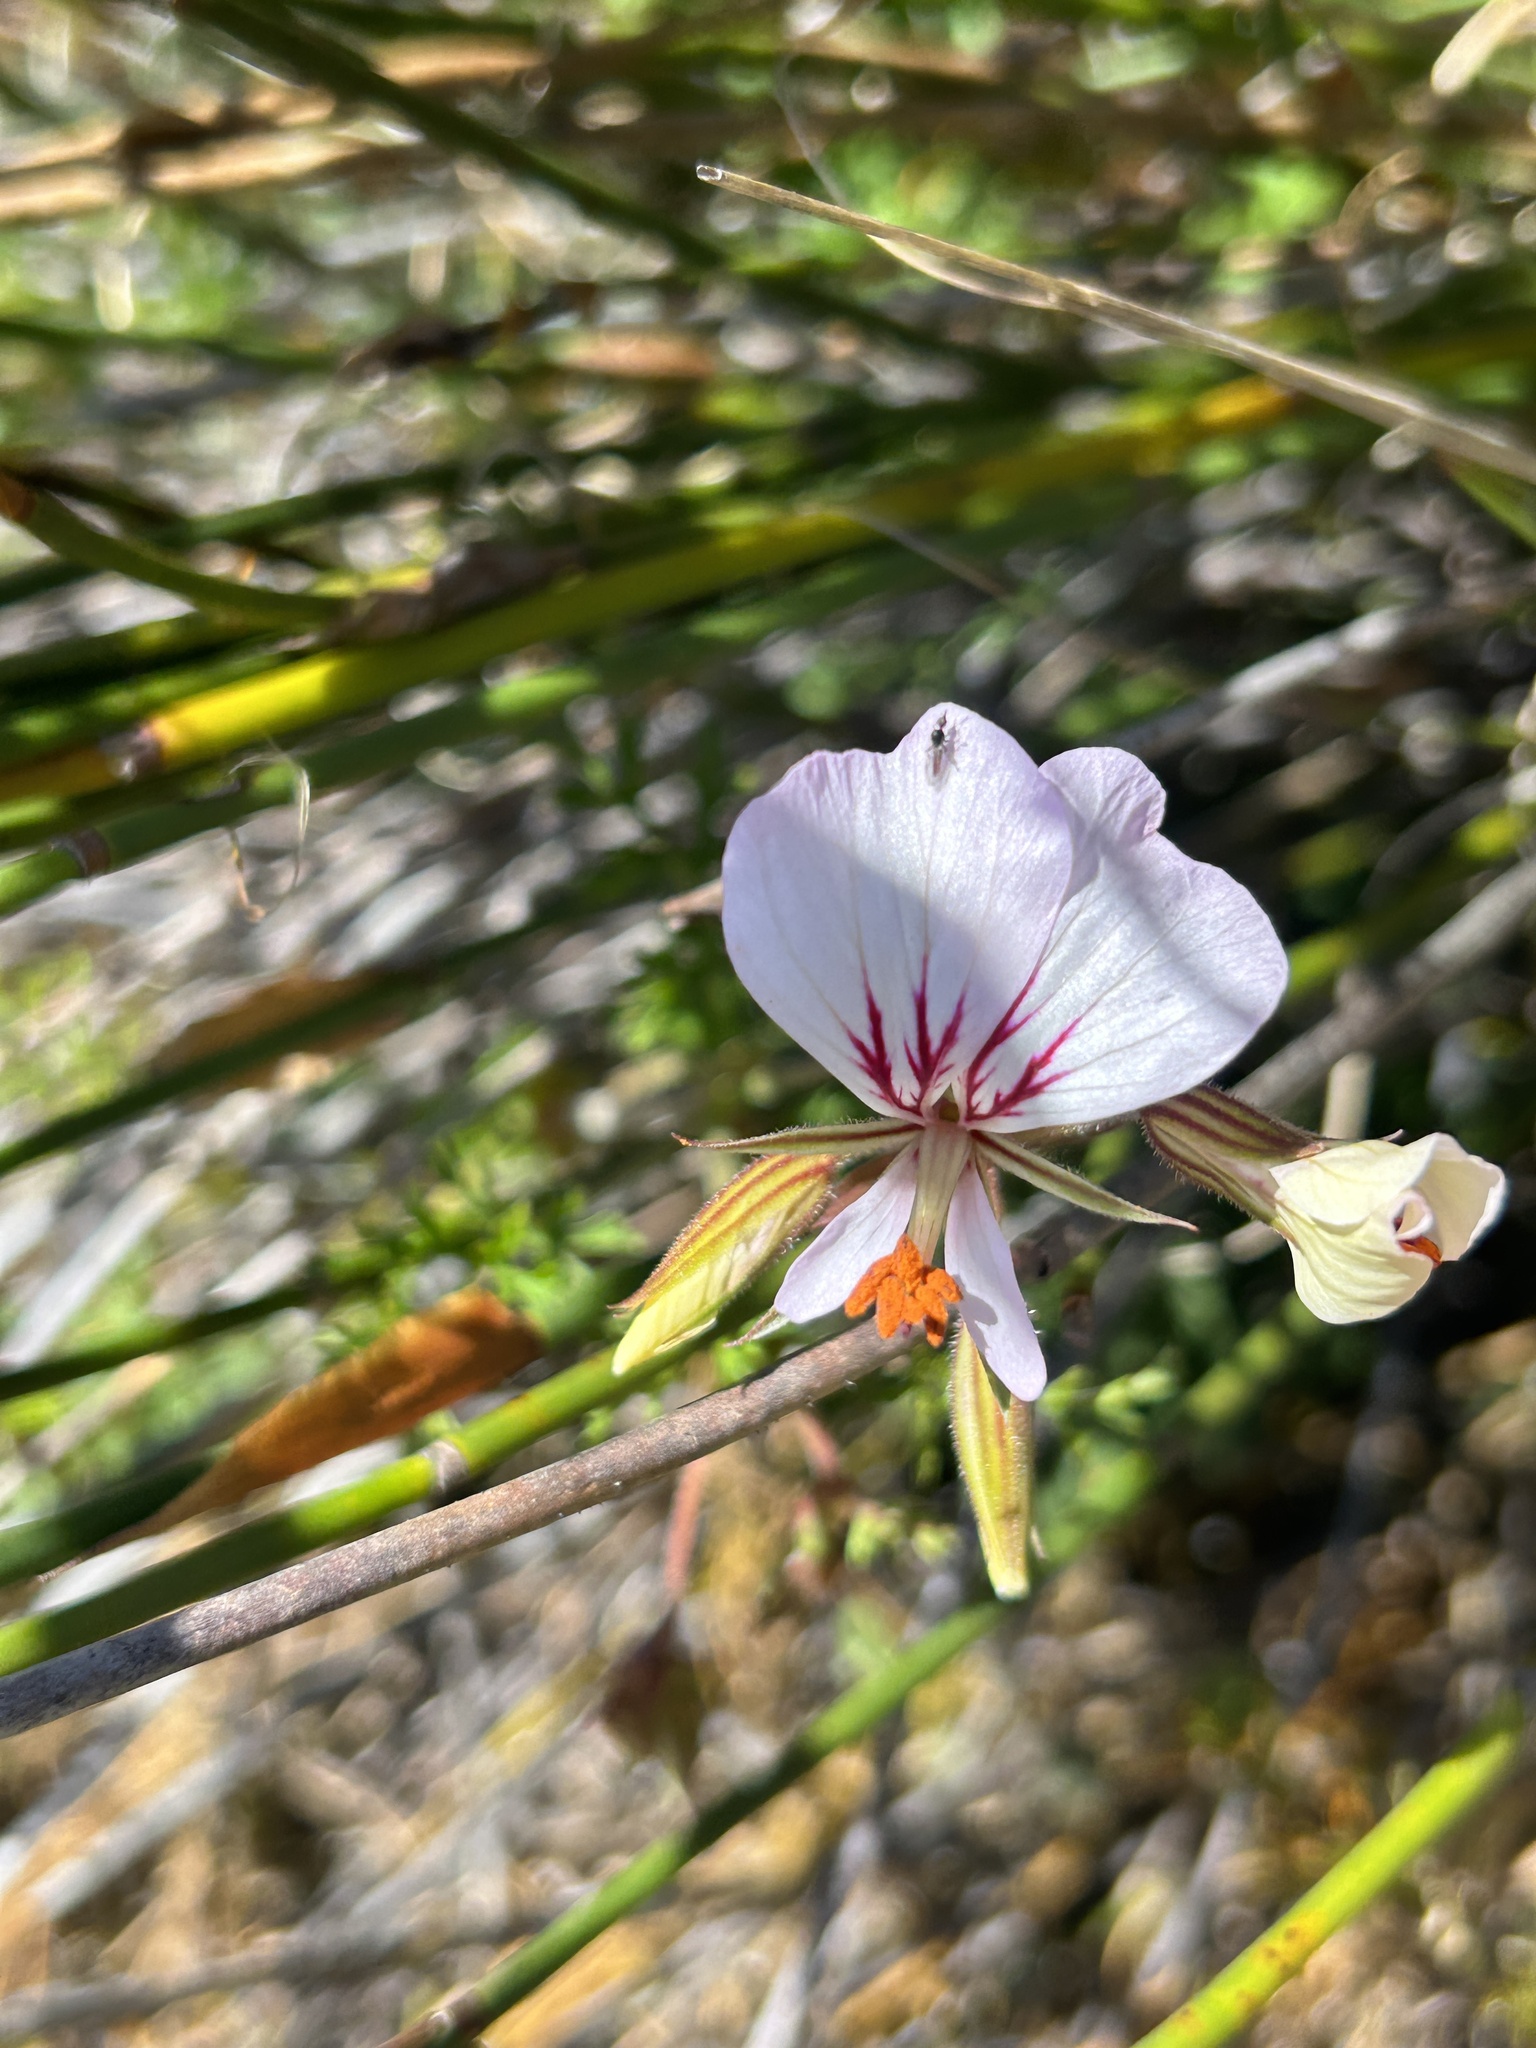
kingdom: Plantae
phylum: Tracheophyta
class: Magnoliopsida
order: Geraniales
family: Geraniaceae
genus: Pelargonium
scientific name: Pelargonium myrrhifolium
